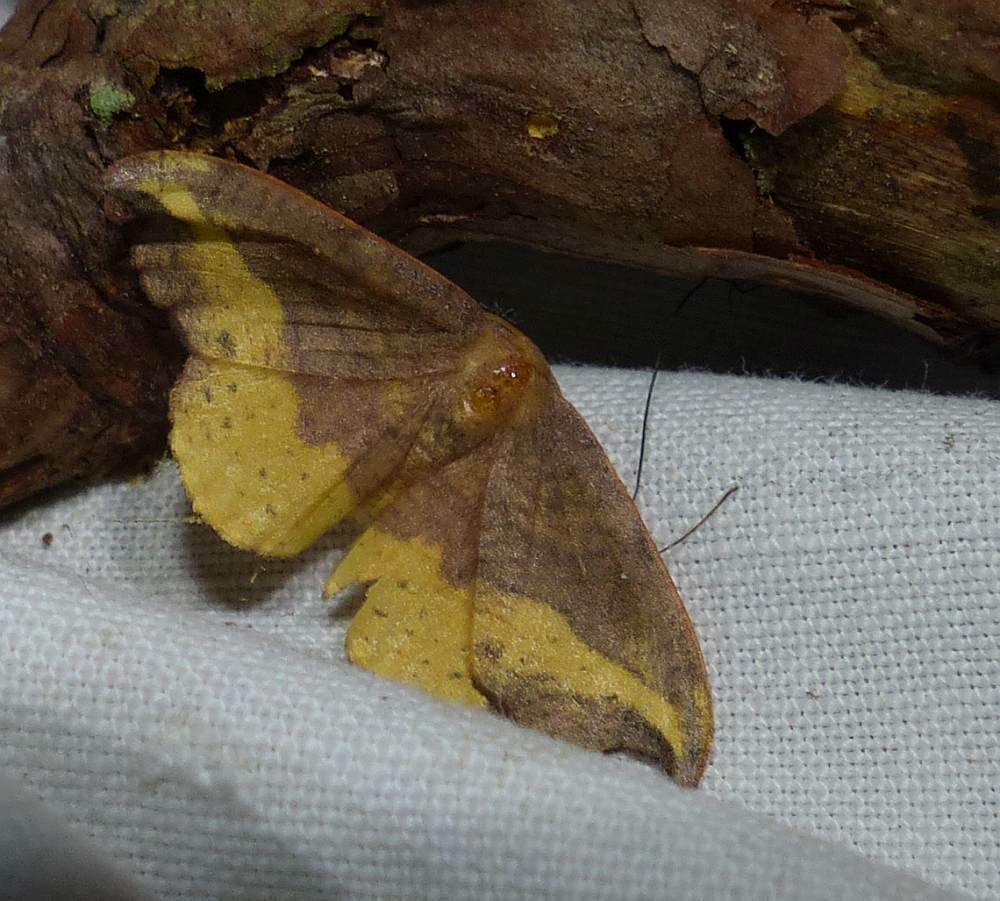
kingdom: Animalia
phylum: Arthropoda
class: Insecta
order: Lepidoptera
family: Drepanidae
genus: Oreta
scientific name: Oreta rosea
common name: Rose hooktip
